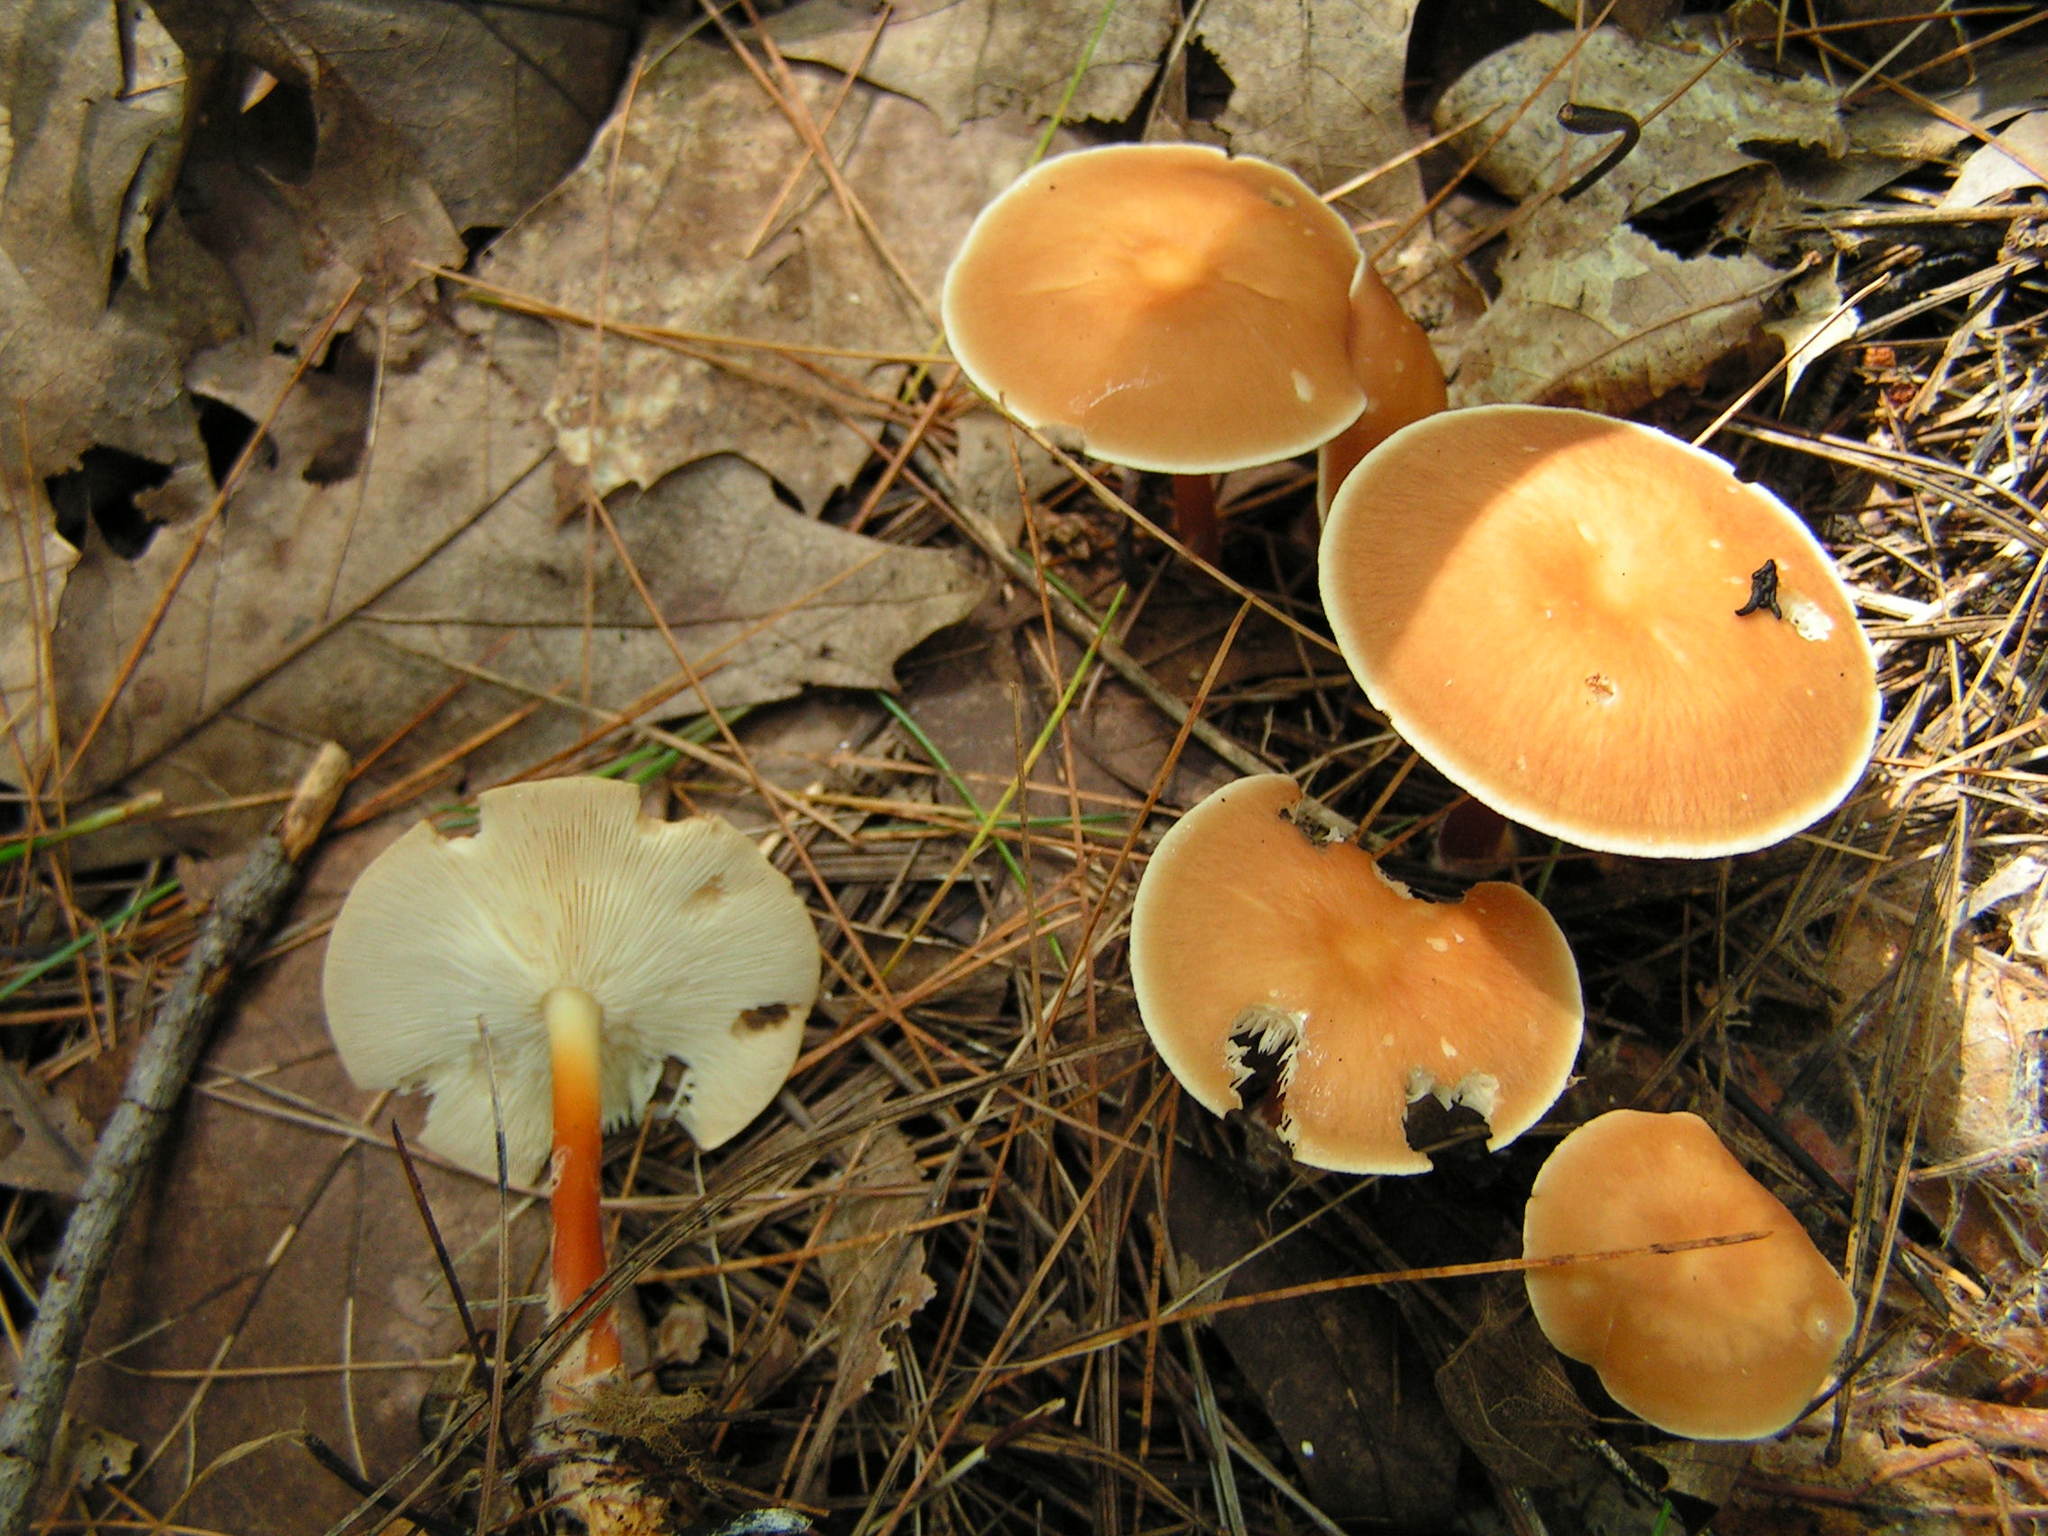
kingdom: Fungi
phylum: Basidiomycota
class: Agaricomycetes
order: Agaricales
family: Omphalotaceae
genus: Gymnopus
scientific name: Gymnopus dryophilus
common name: Penny top
